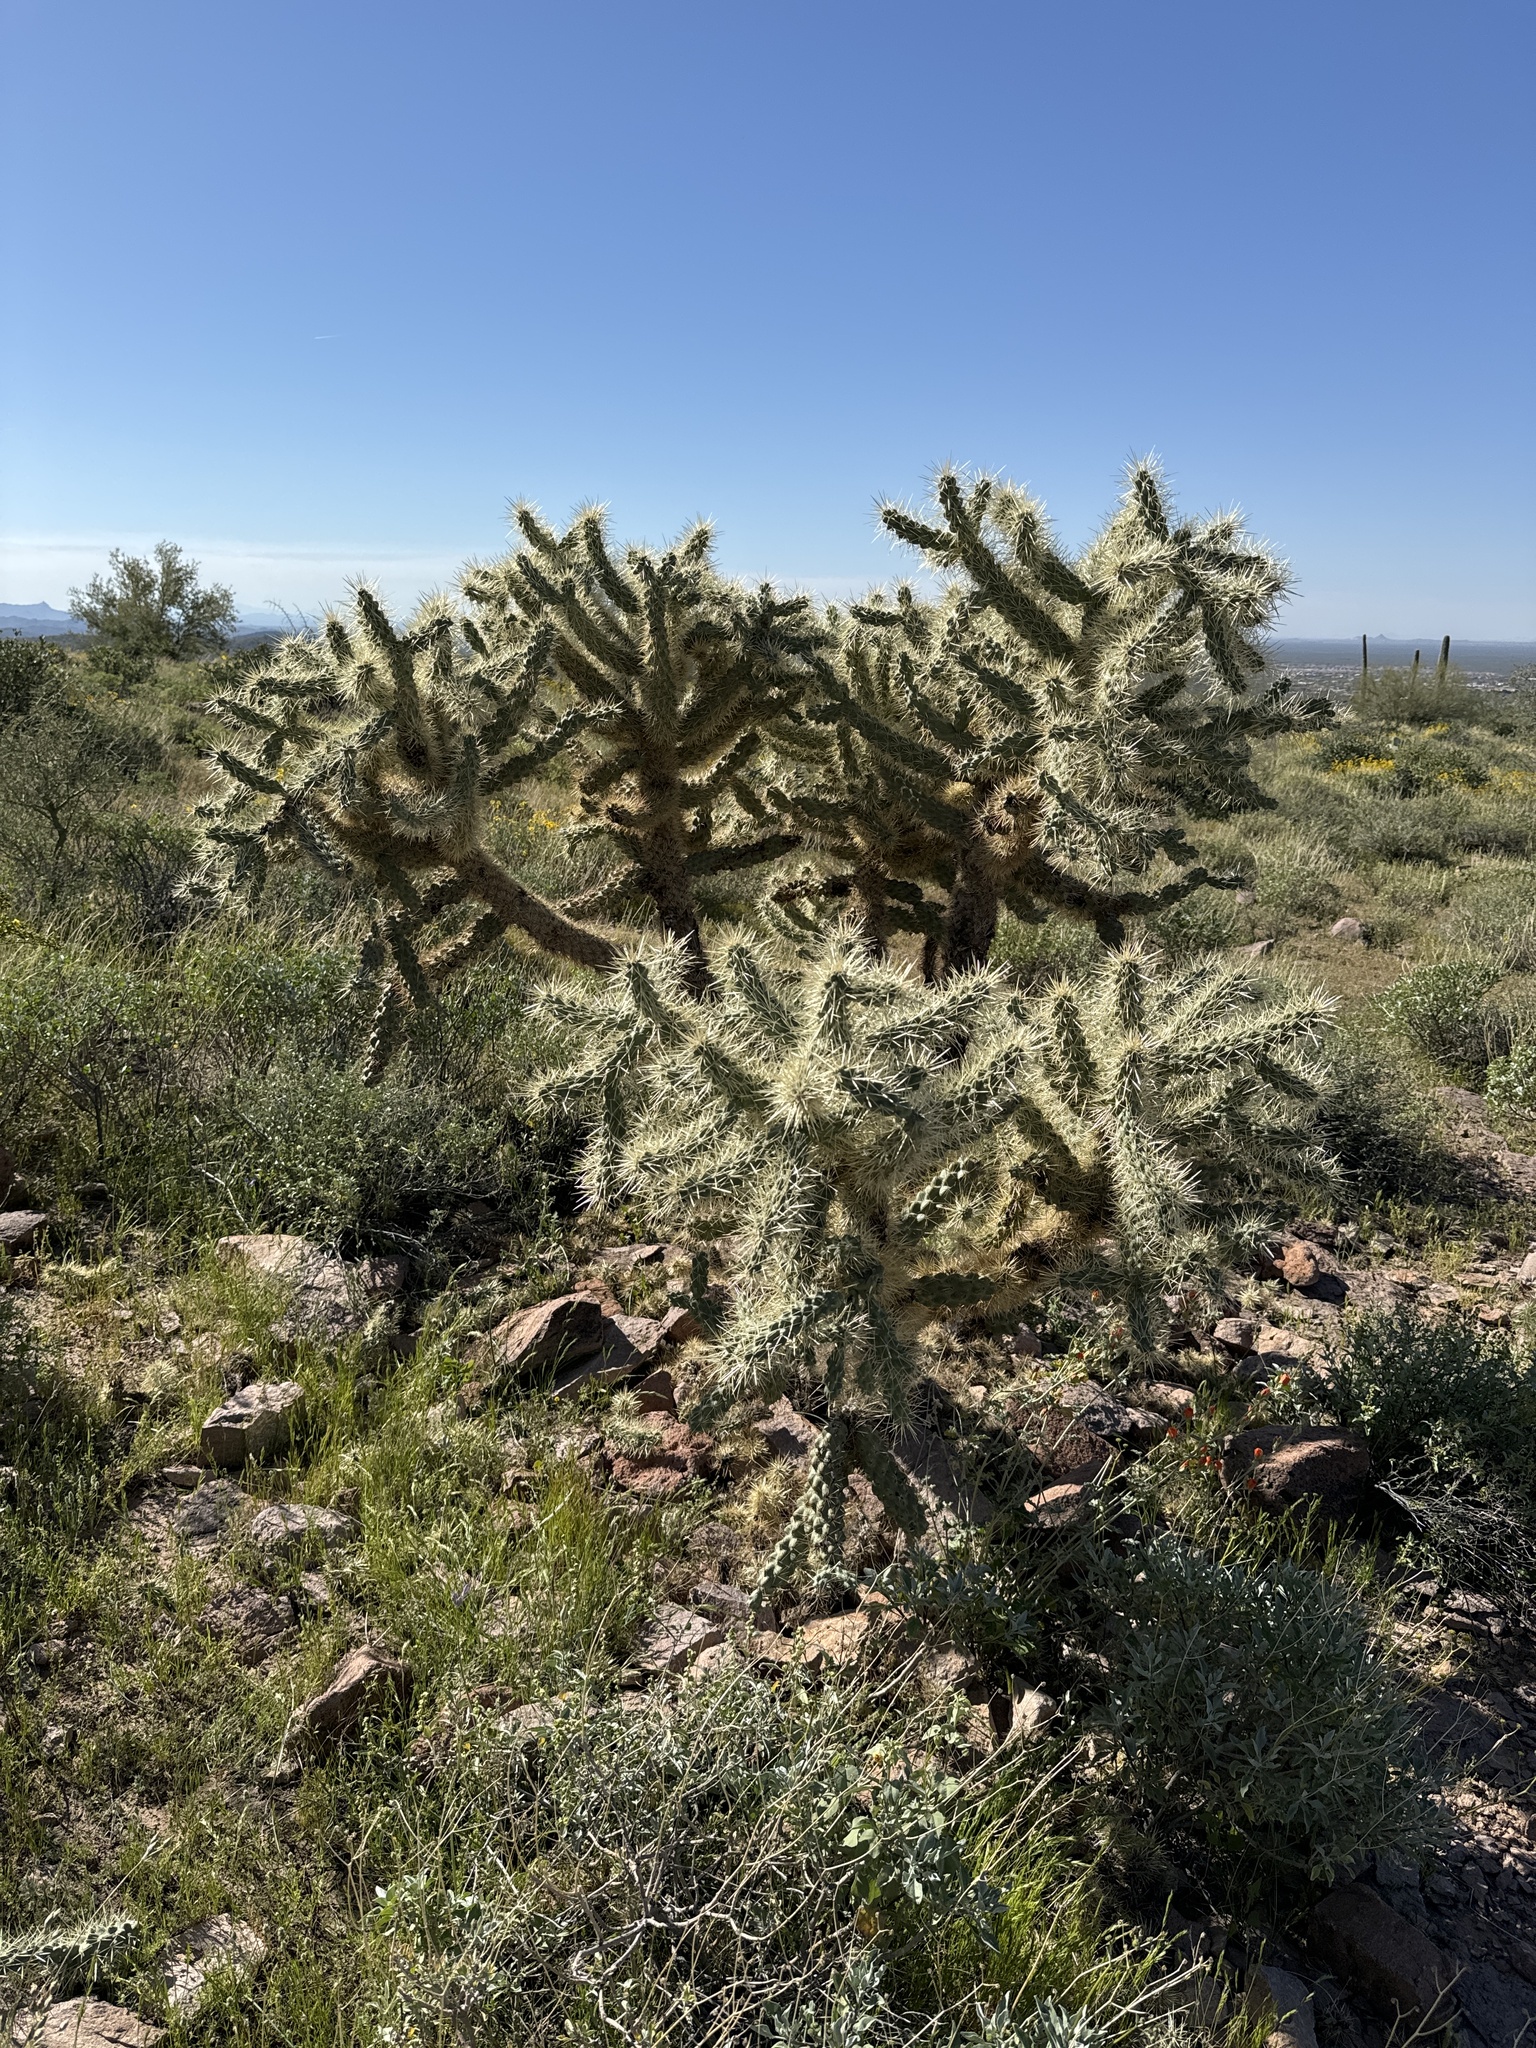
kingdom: Plantae
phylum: Tracheophyta
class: Magnoliopsida
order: Caryophyllales
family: Cactaceae
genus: Cylindropuntia
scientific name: Cylindropuntia fulgida
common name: Jumping cholla
